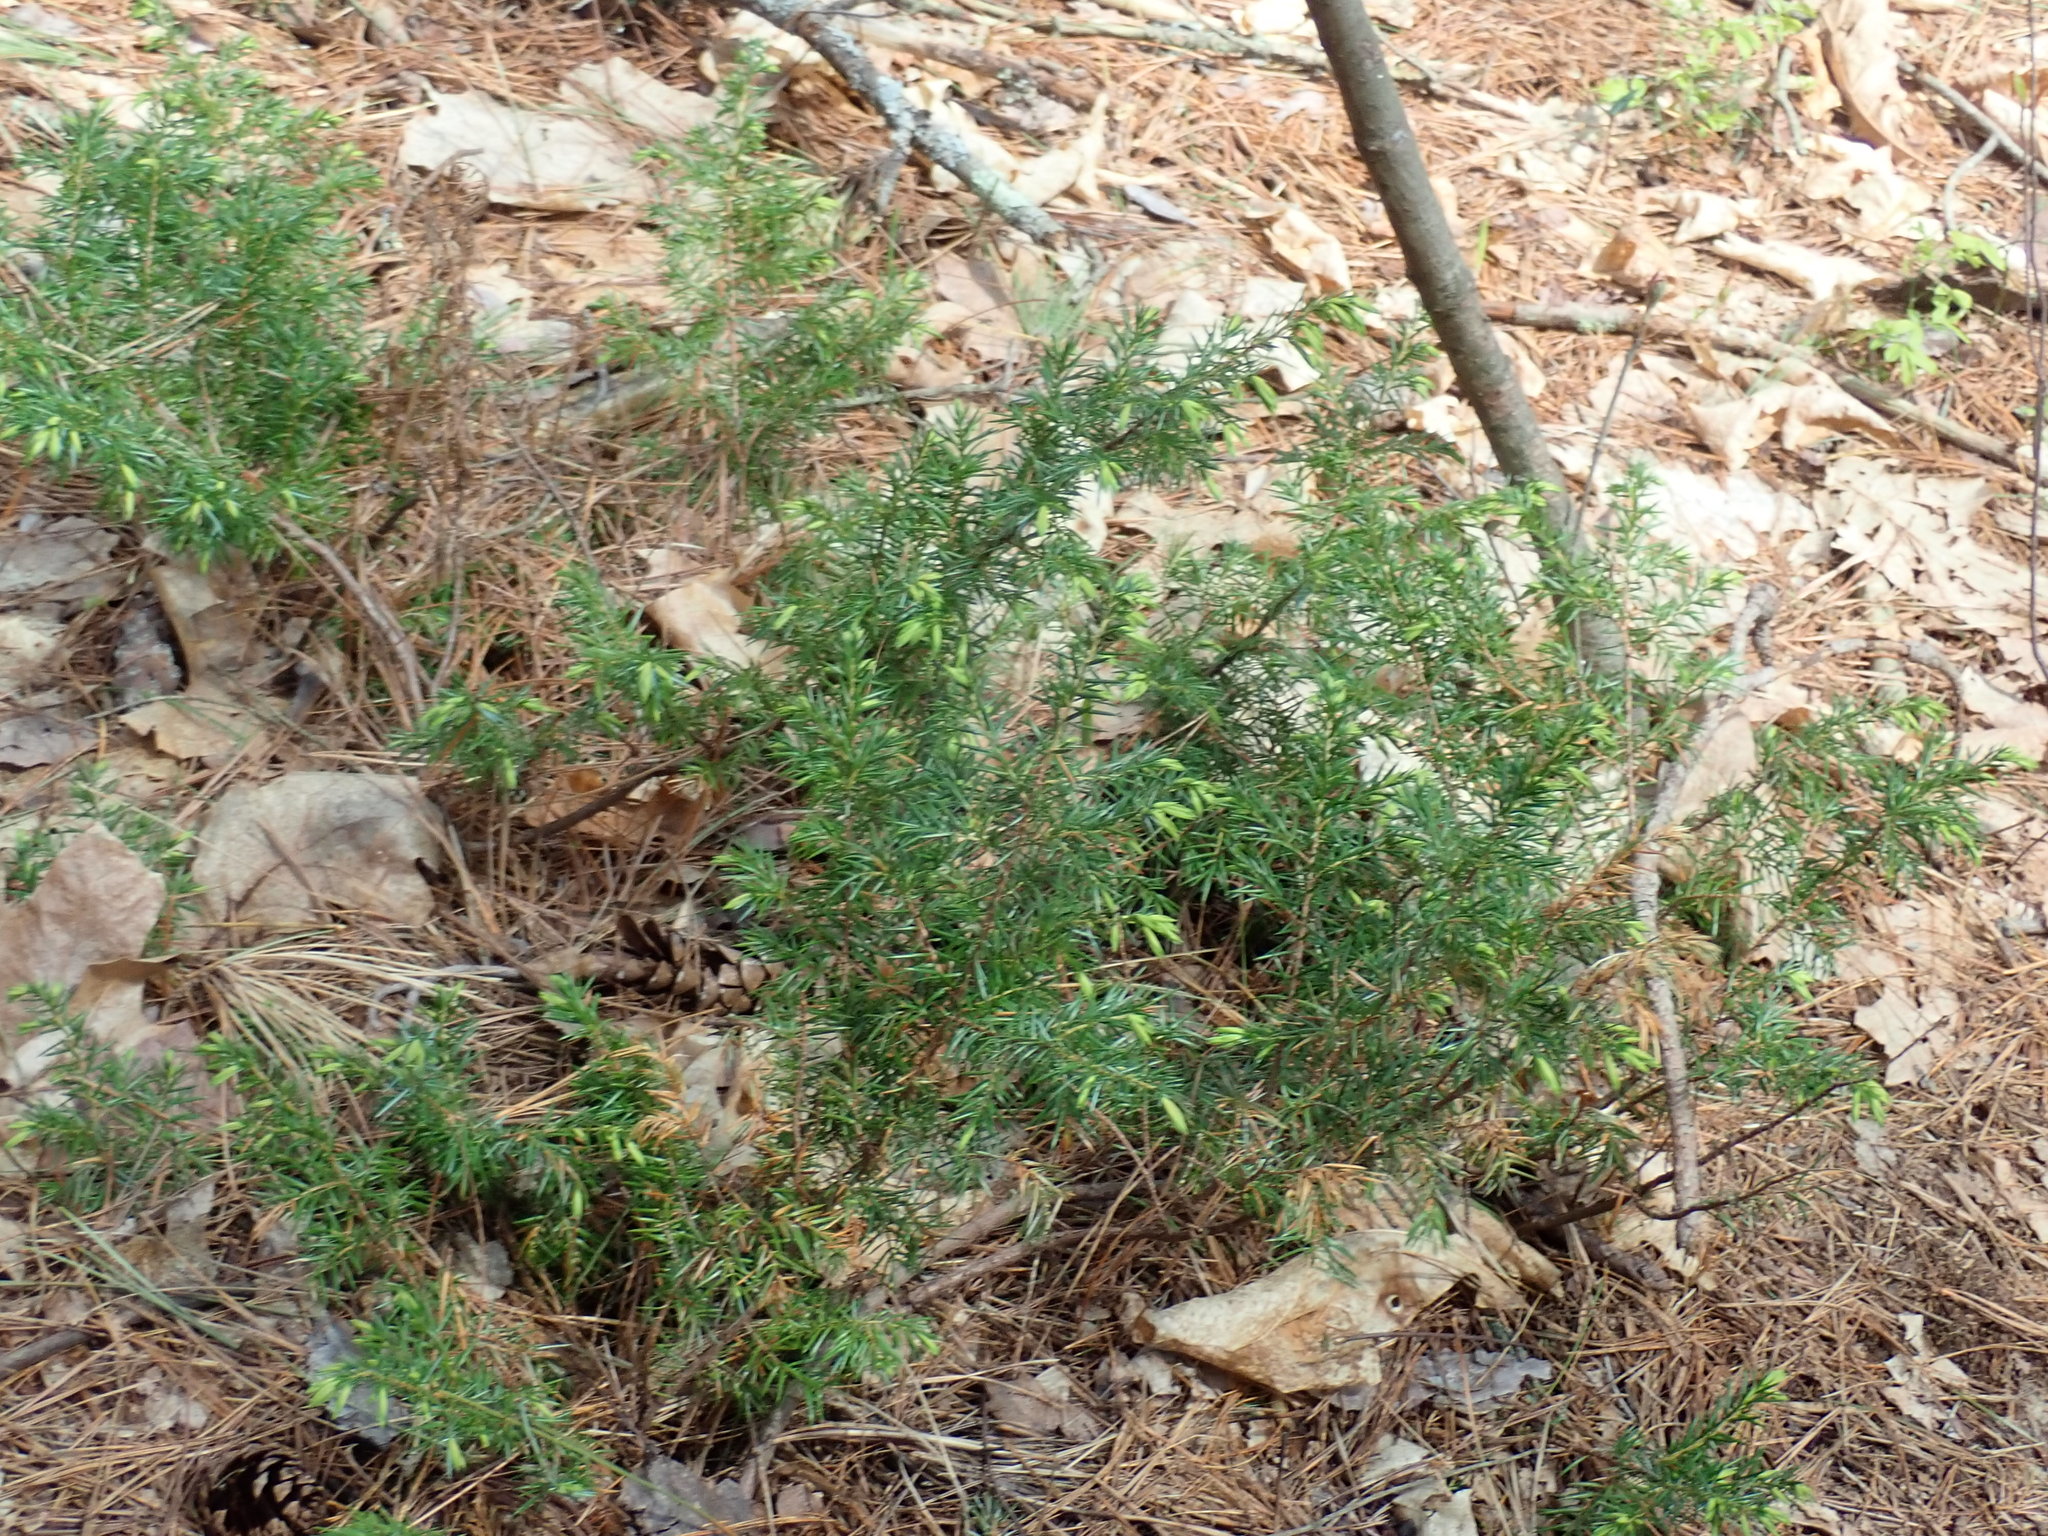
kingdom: Plantae
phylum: Tracheophyta
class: Pinopsida
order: Pinales
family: Cupressaceae
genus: Juniperus
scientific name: Juniperus communis
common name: Common juniper
